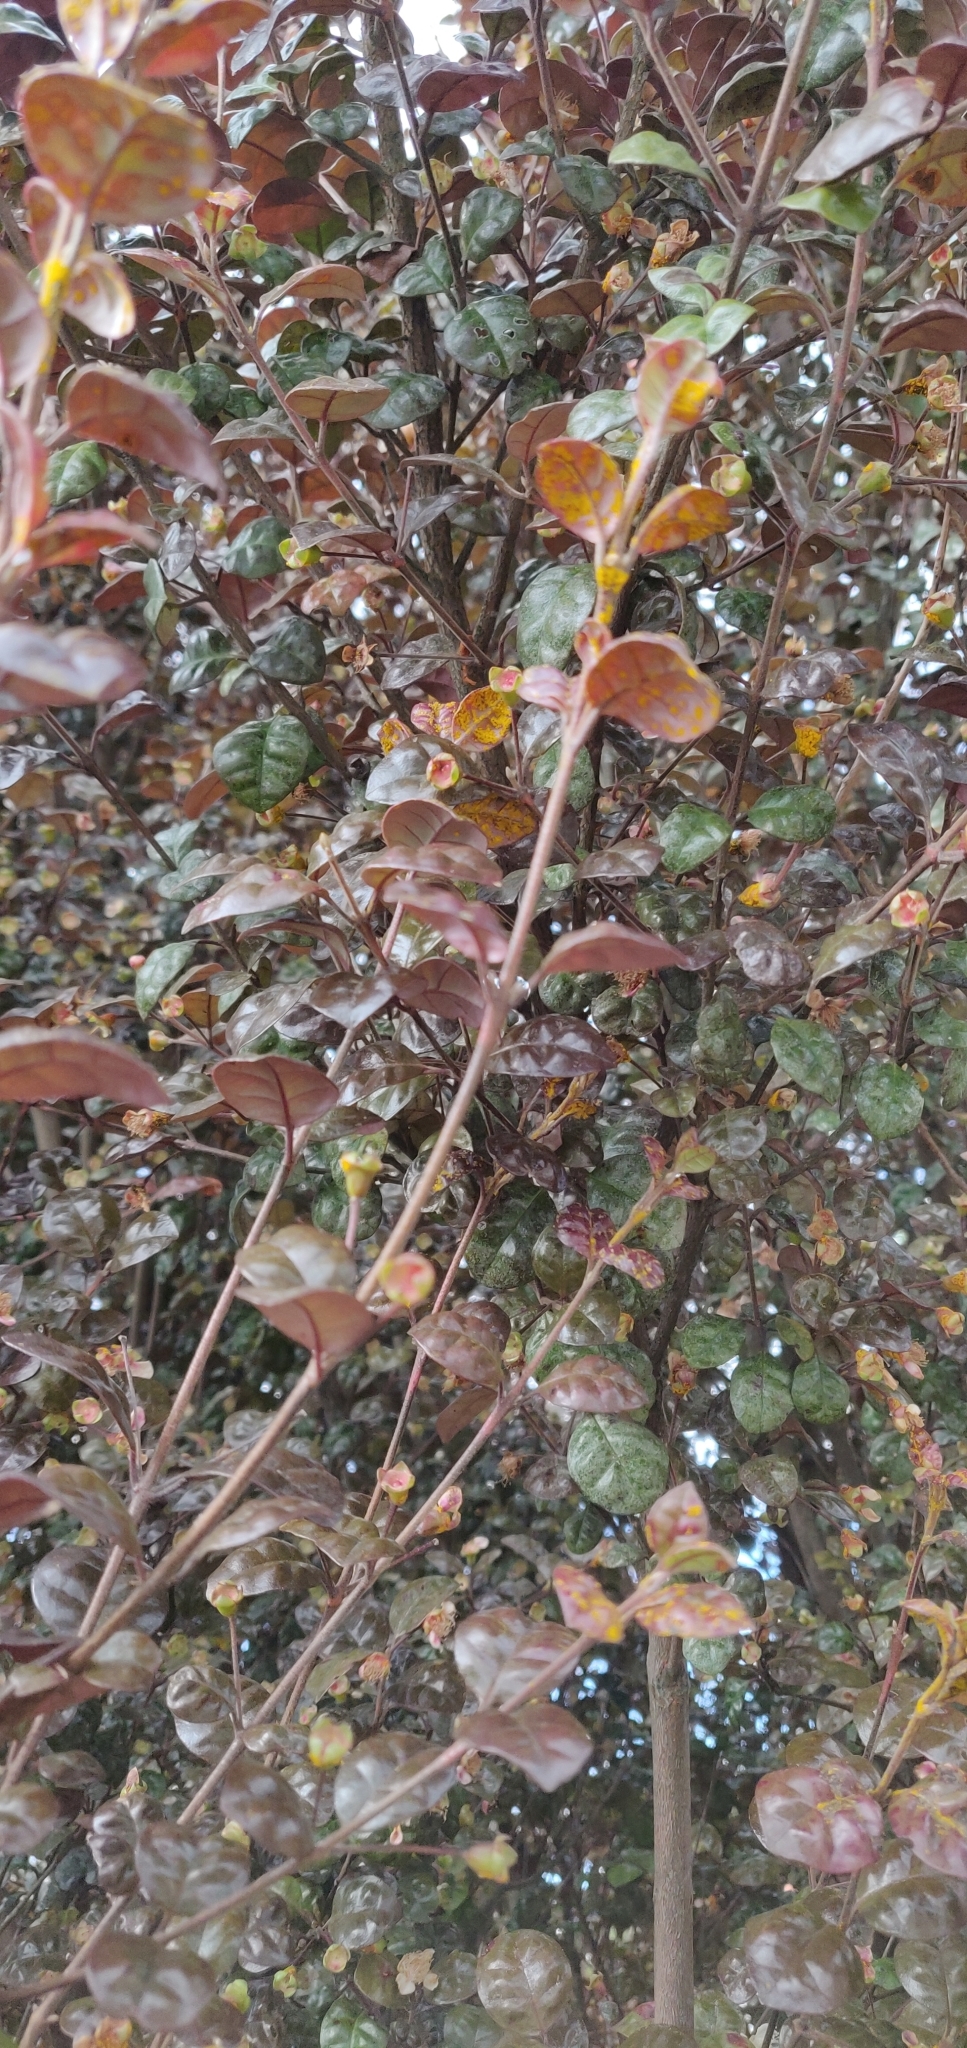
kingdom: Fungi
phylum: Basidiomycota
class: Pucciniomycetes
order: Pucciniales
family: Sphaerophragmiaceae
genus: Austropuccinia
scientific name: Austropuccinia psidii
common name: Myrtle rust
